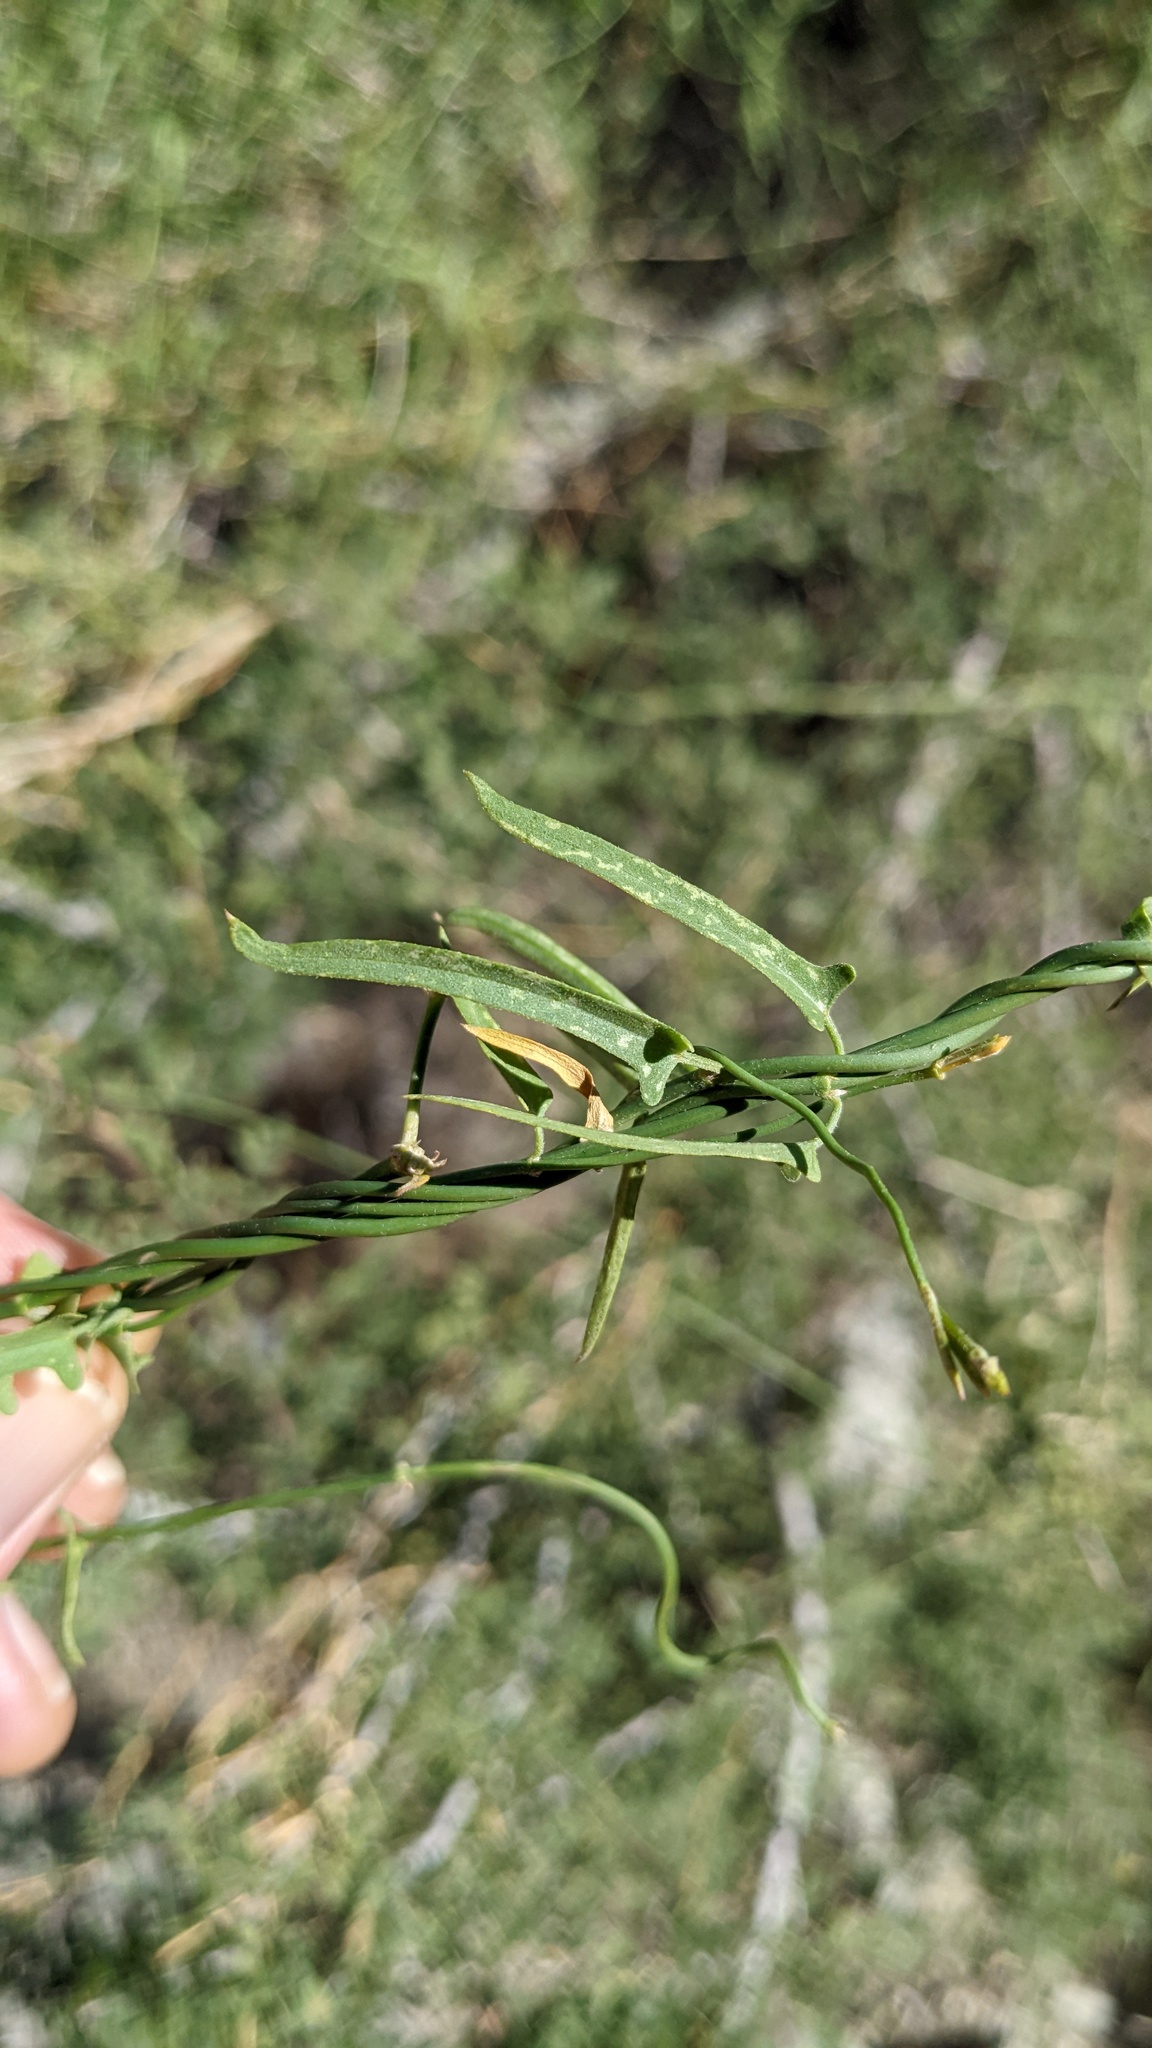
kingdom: Plantae
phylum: Tracheophyta
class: Magnoliopsida
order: Gentianales
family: Apocynaceae
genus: Funastrum
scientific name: Funastrum heterophyllum
